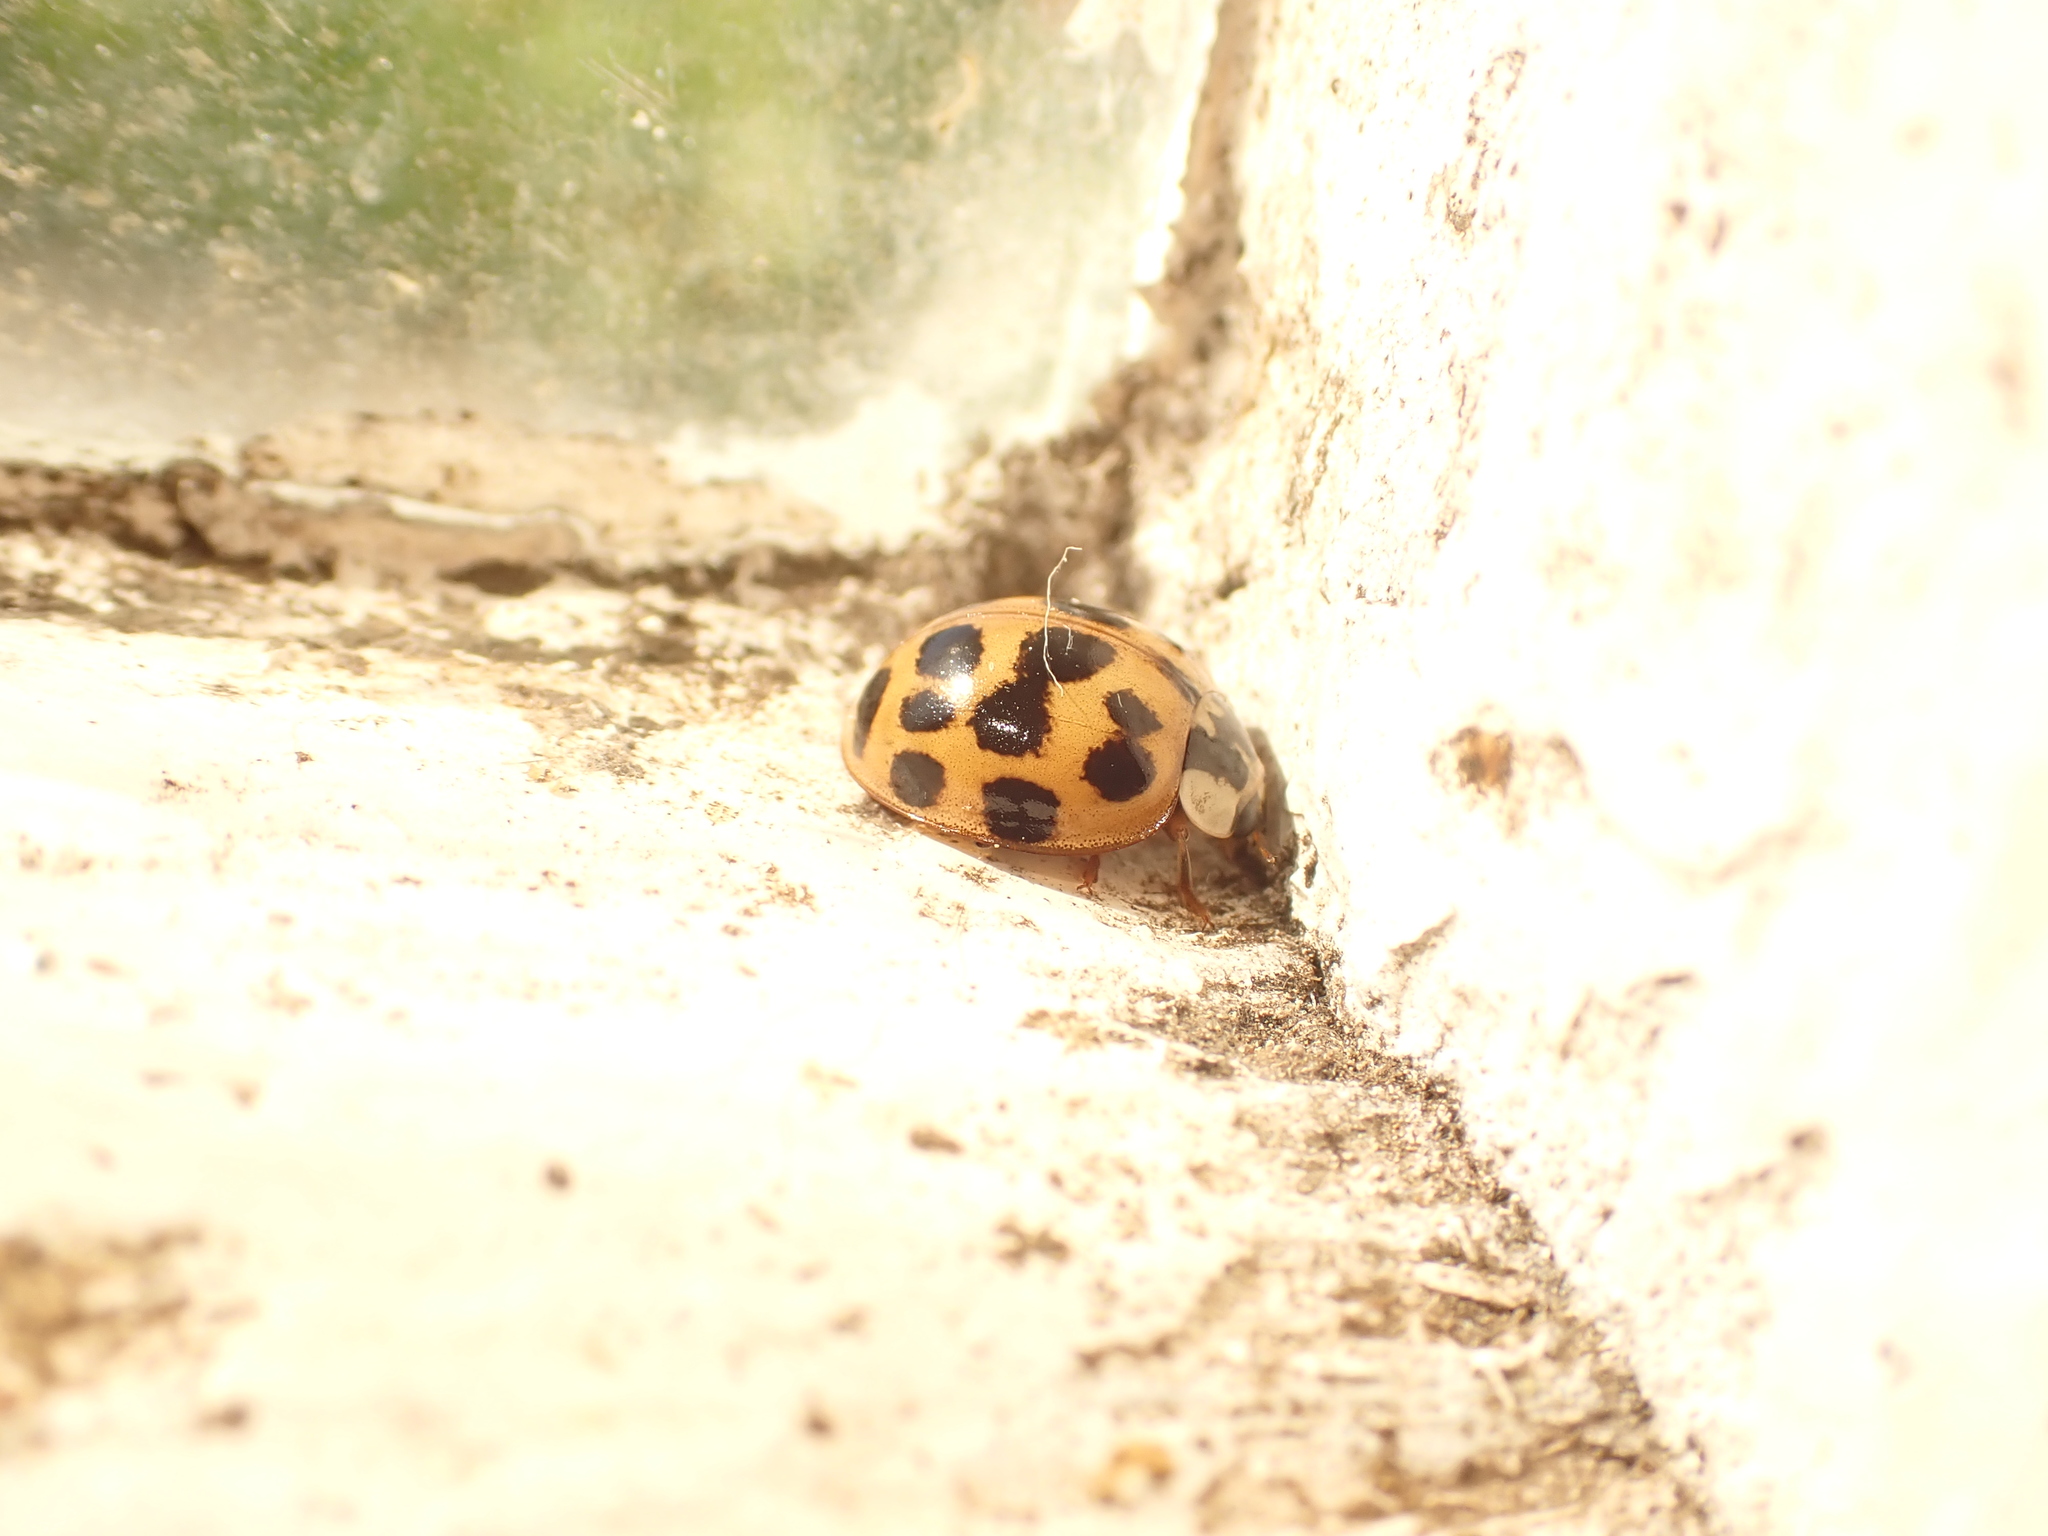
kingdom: Animalia
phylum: Arthropoda
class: Insecta
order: Coleoptera
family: Coccinellidae
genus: Harmonia
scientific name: Harmonia axyridis
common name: Harlequin ladybird
